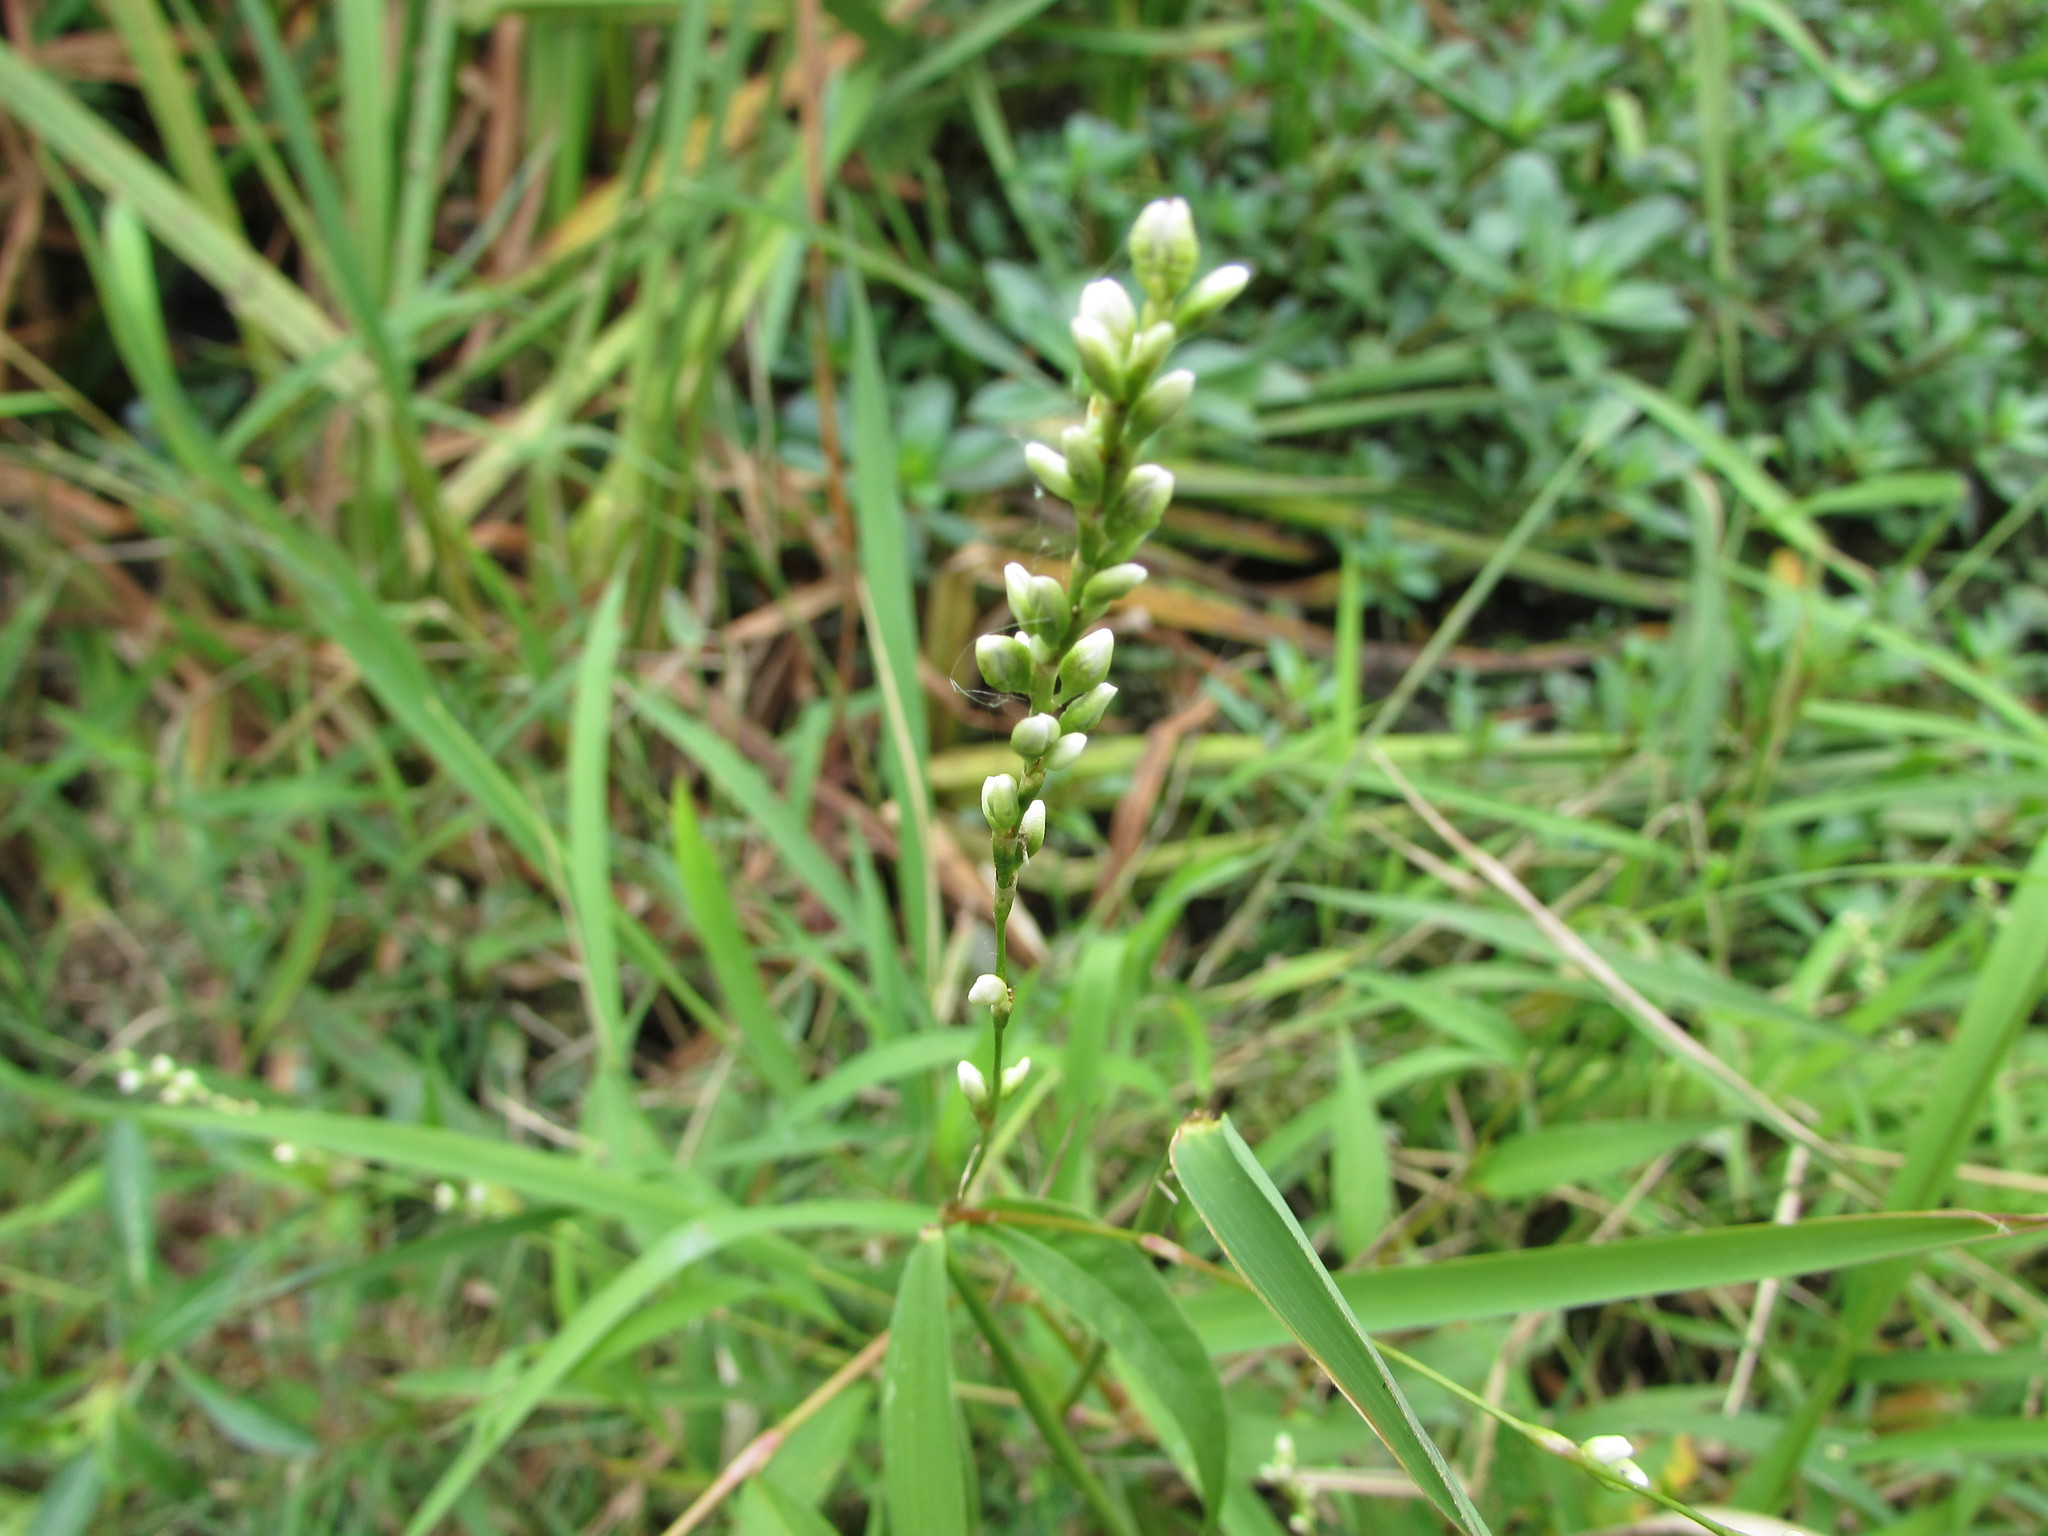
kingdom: Plantae
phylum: Tracheophyta
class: Magnoliopsida
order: Caryophyllales
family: Polygonaceae
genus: Persicaria
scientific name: Persicaria punctata
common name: Dotted smartweed
